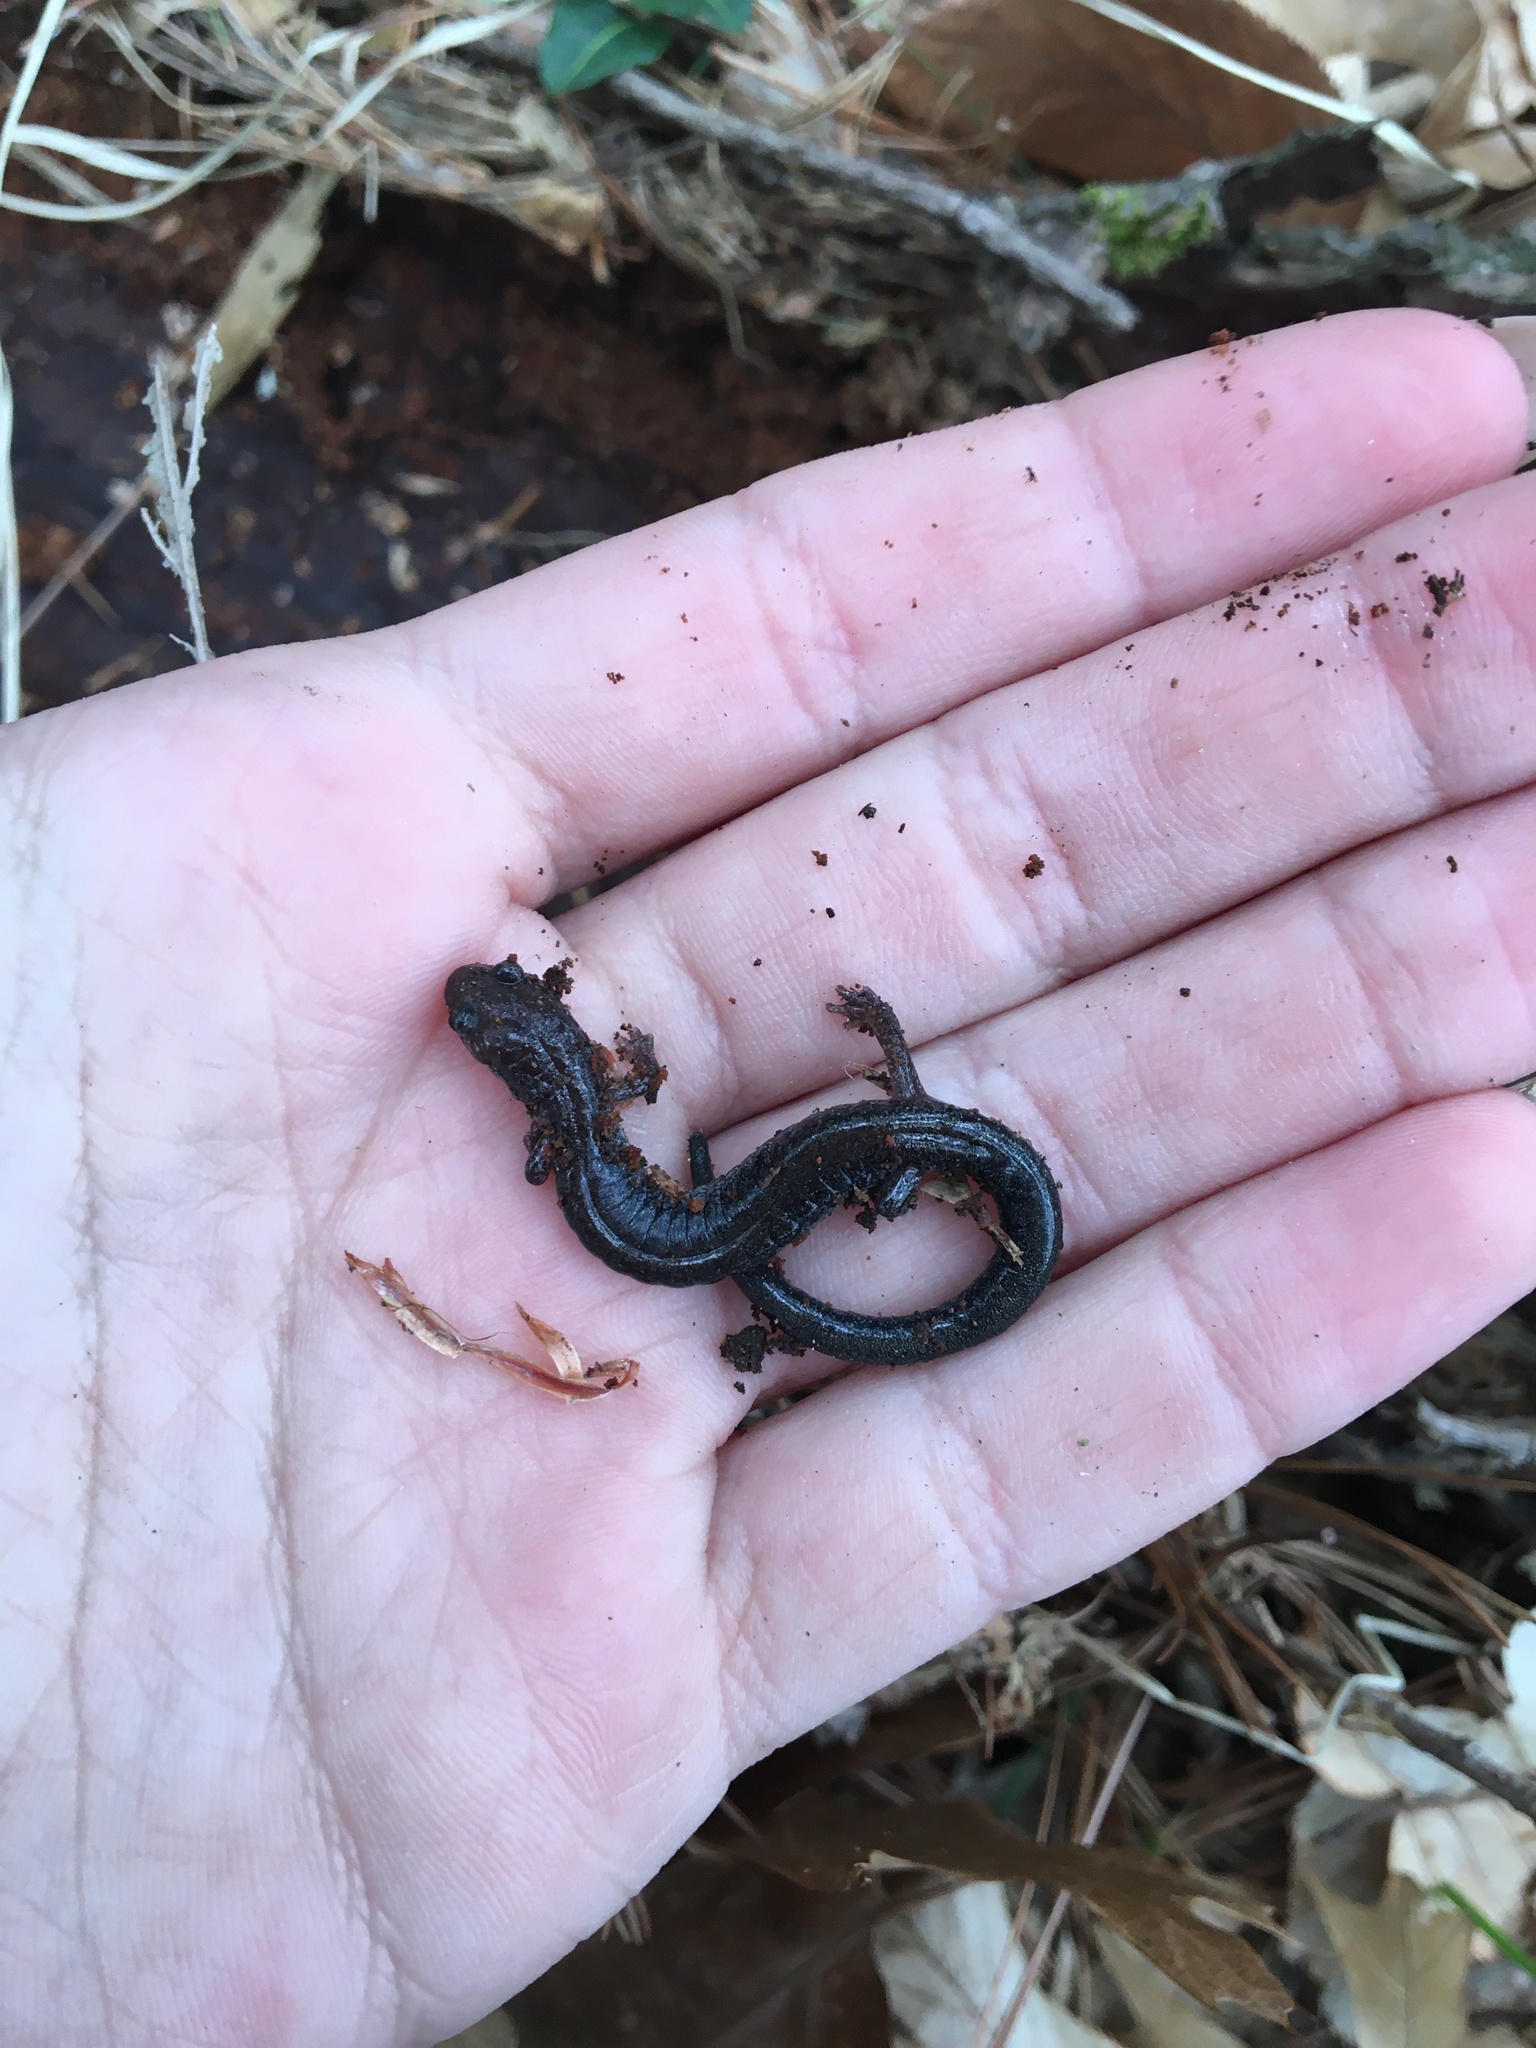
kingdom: Animalia
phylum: Chordata
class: Amphibia
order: Caudata
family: Plethodontidae
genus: Plethodon
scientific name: Plethodon cinereus
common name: Redback salamander
